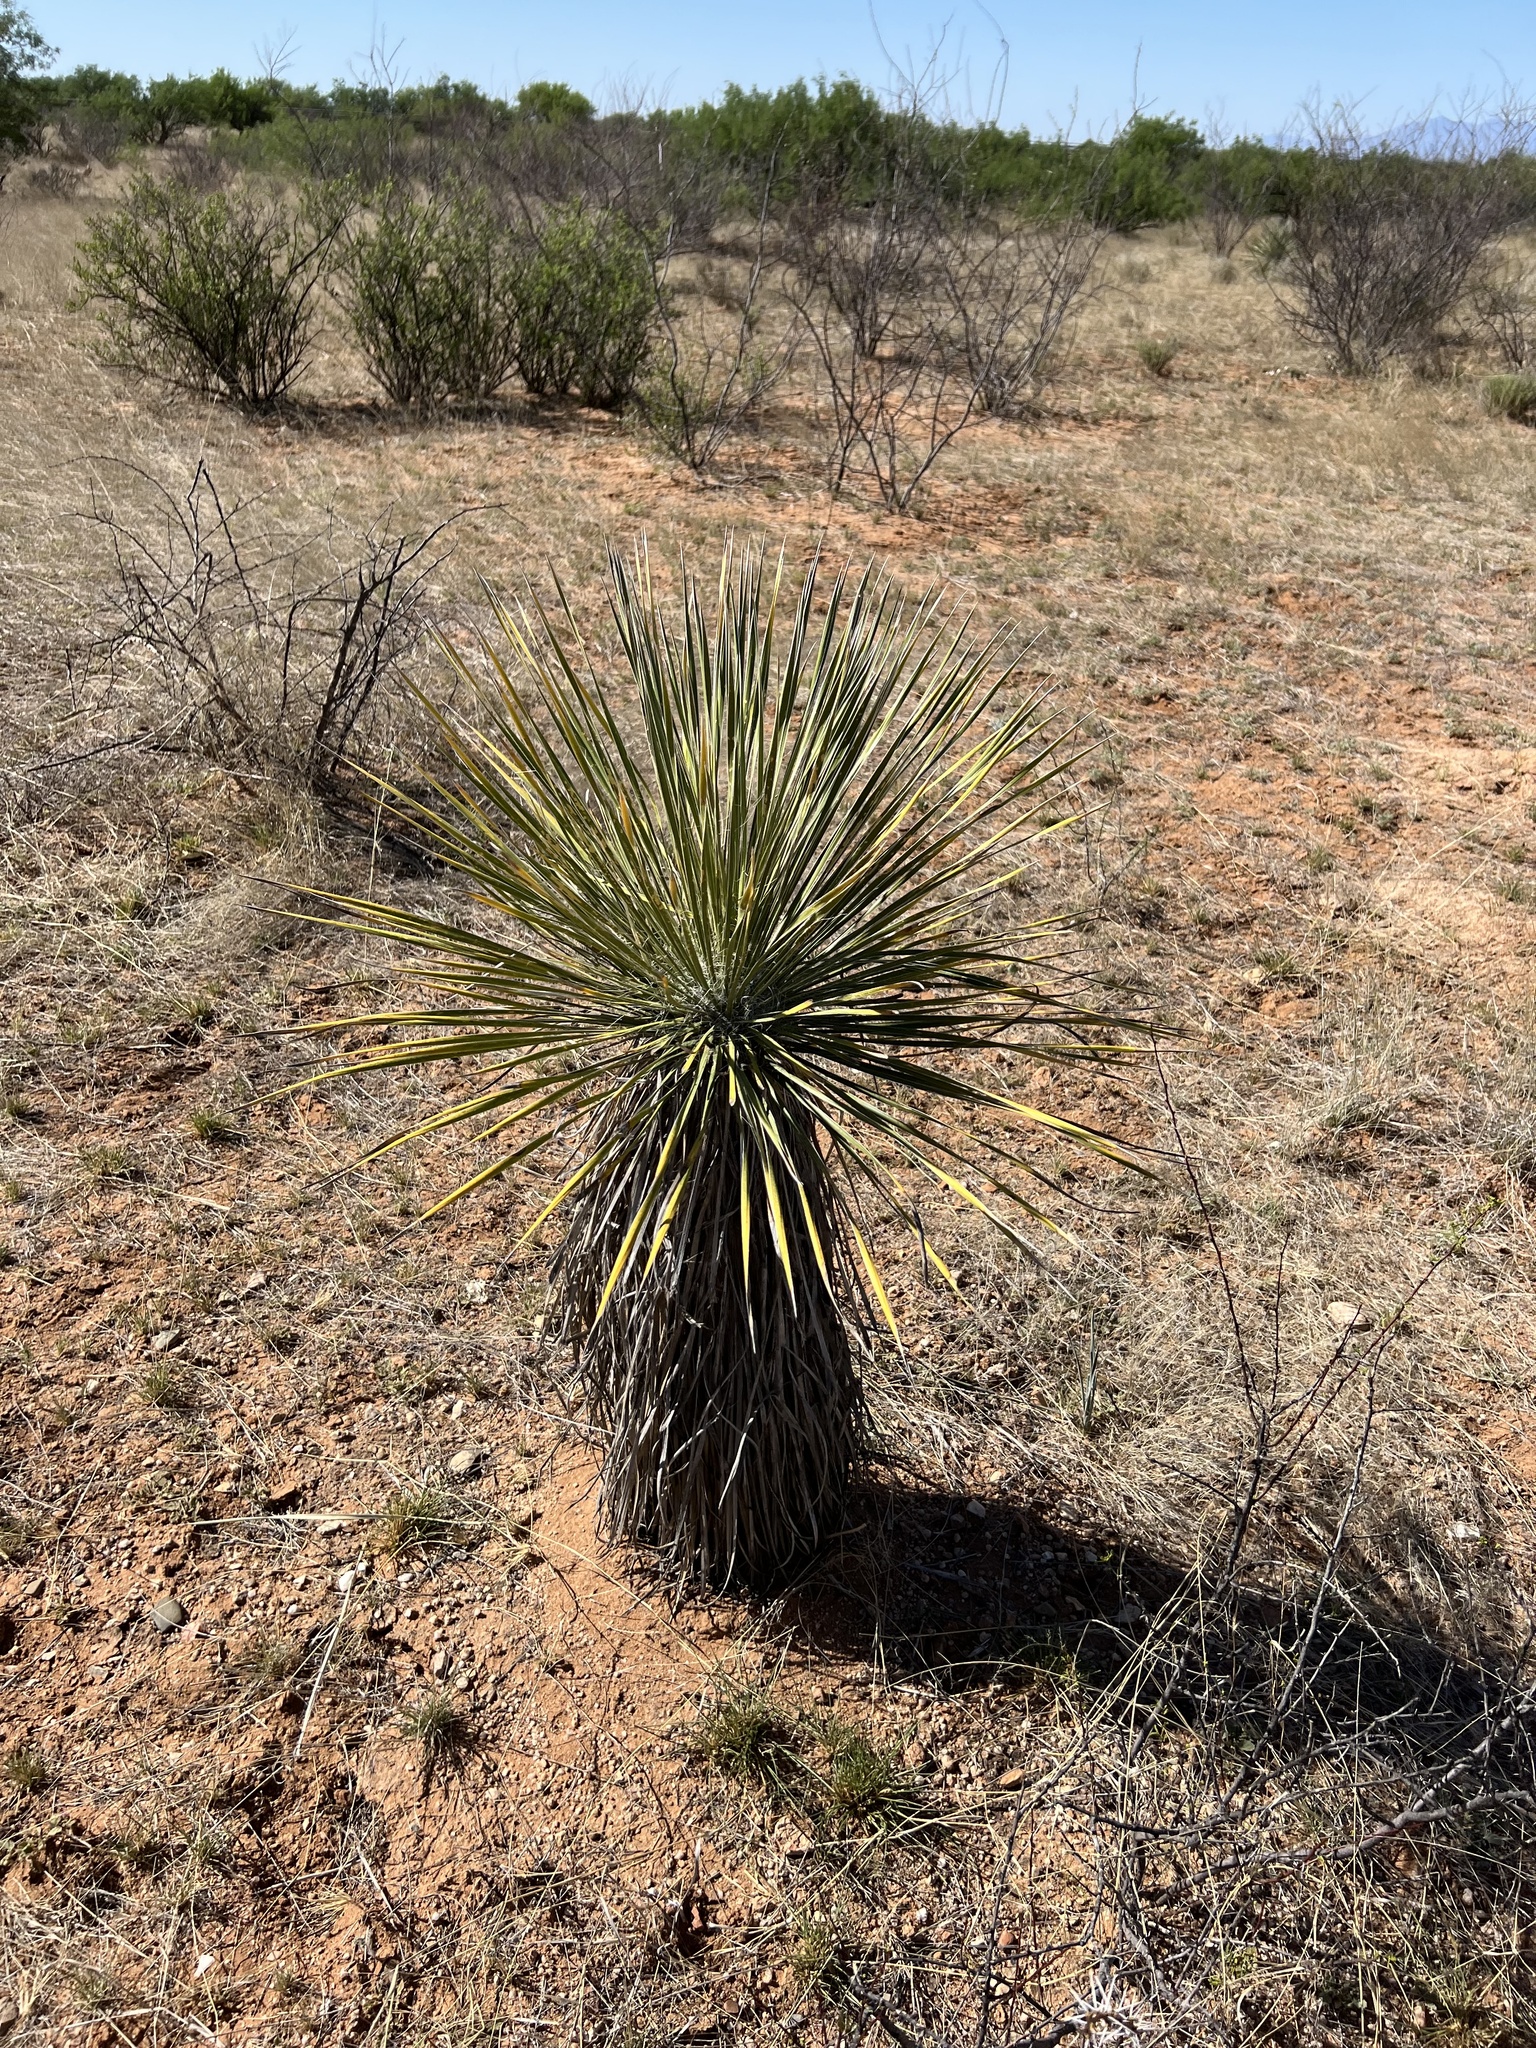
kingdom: Plantae
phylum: Tracheophyta
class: Liliopsida
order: Asparagales
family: Asparagaceae
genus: Yucca
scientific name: Yucca elata
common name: Palmella
